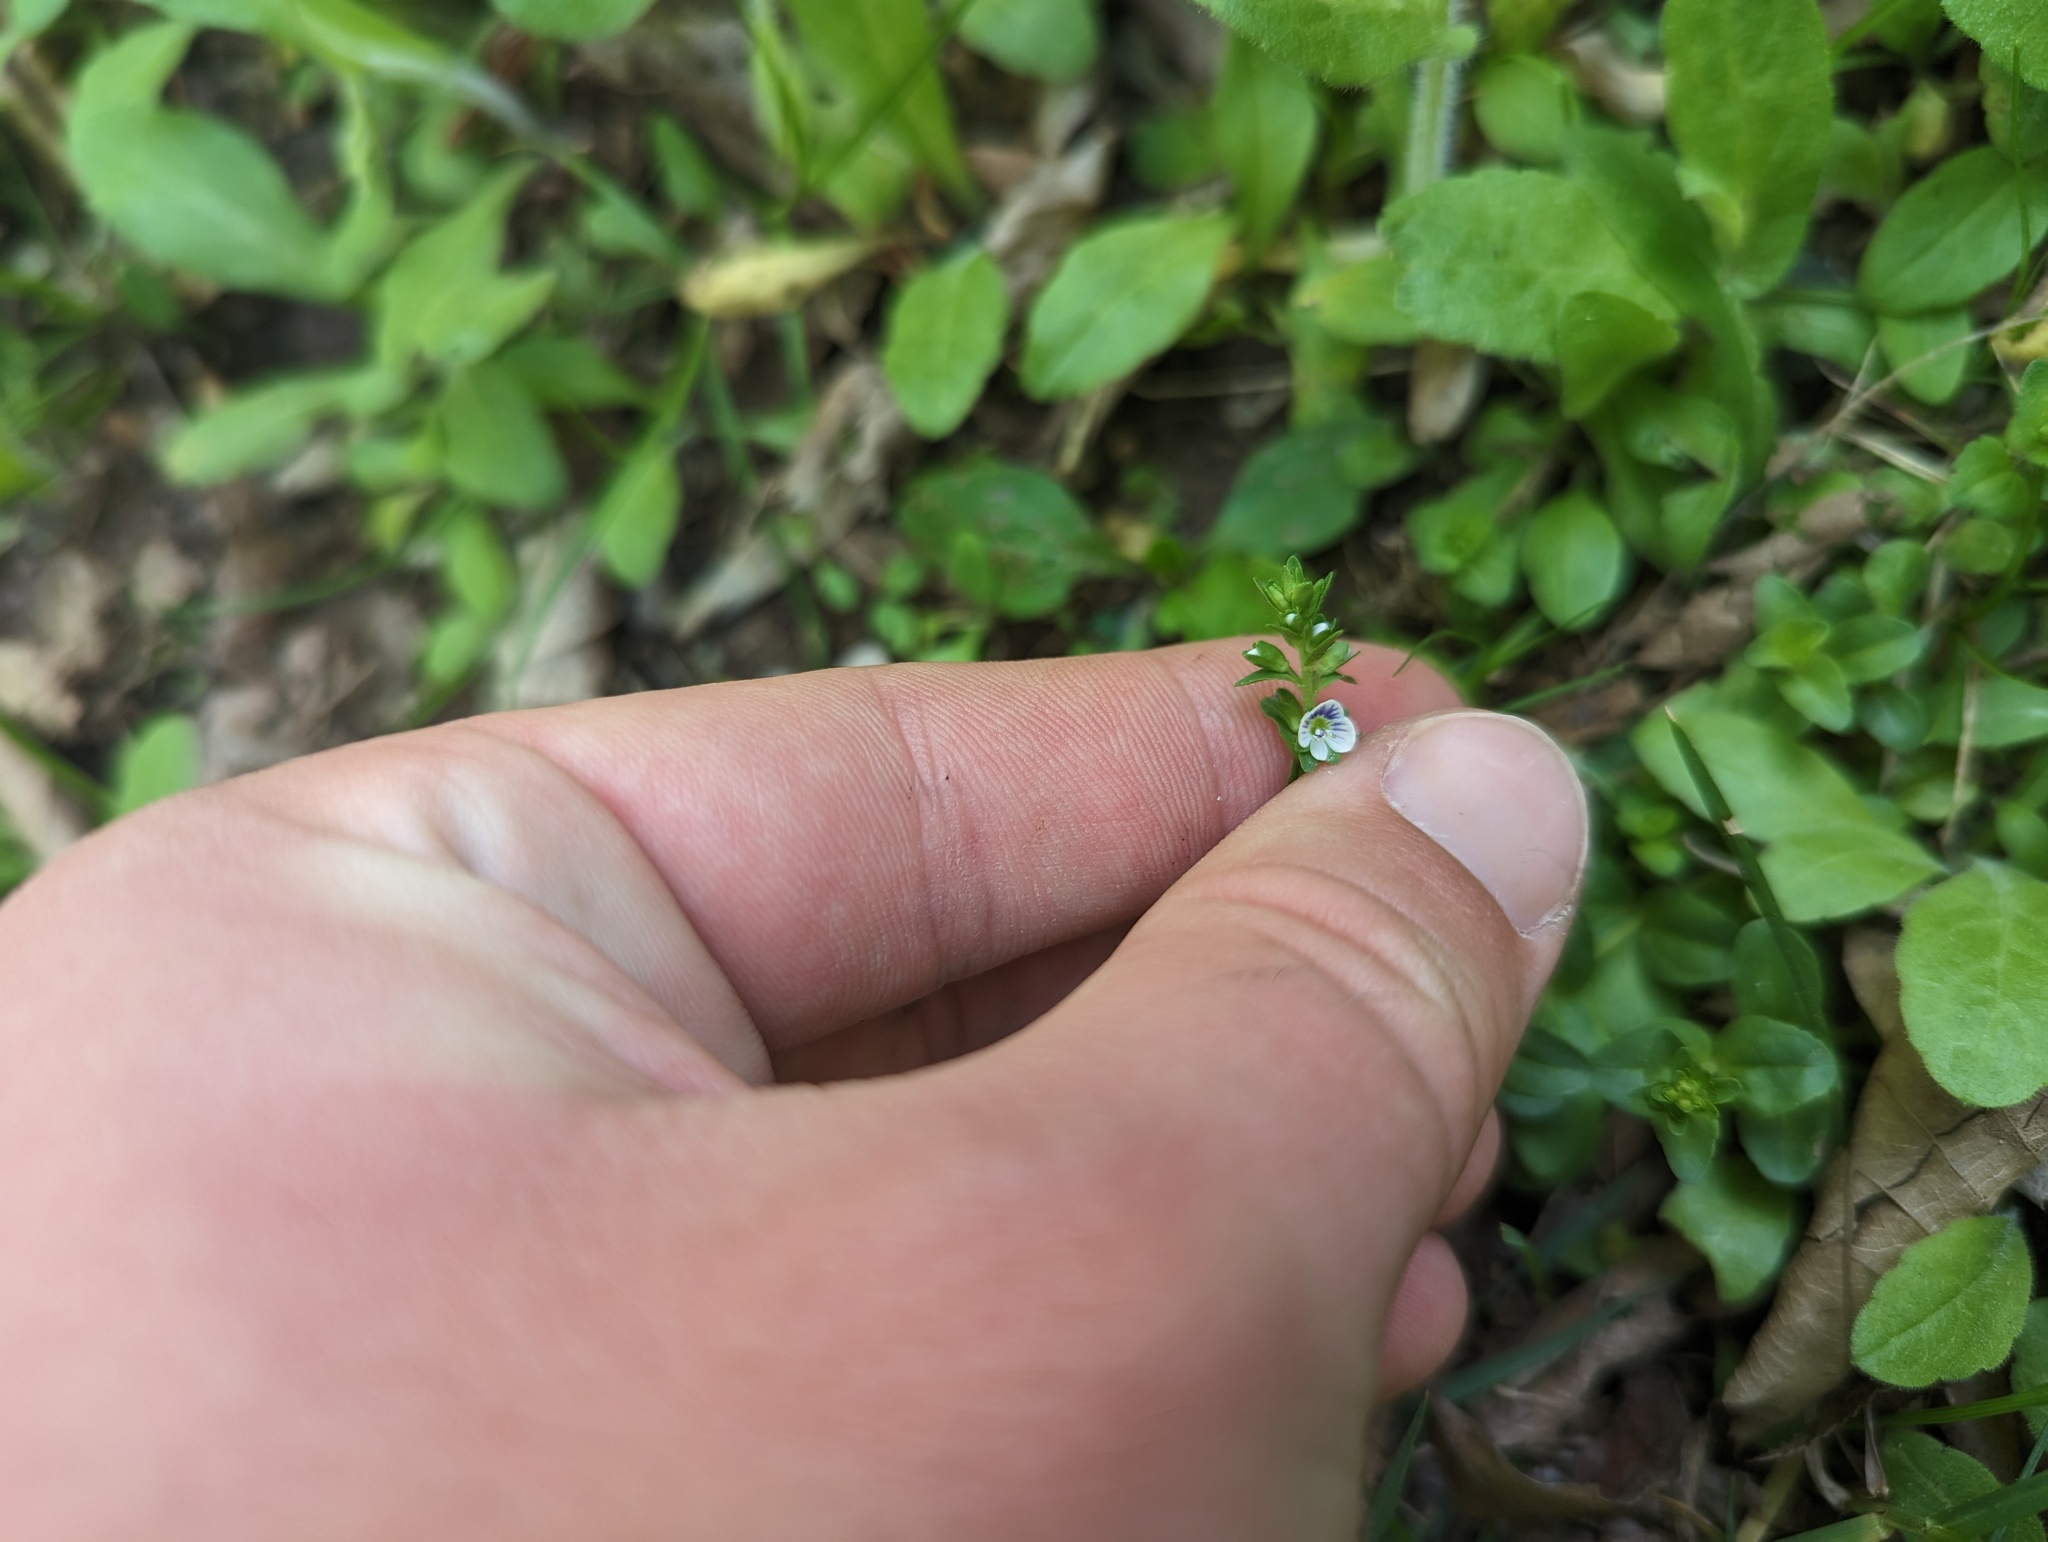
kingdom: Plantae
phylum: Tracheophyta
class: Magnoliopsida
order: Lamiales
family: Plantaginaceae
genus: Veronica
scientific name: Veronica serpyllifolia
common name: Thyme-leaved speedwell
